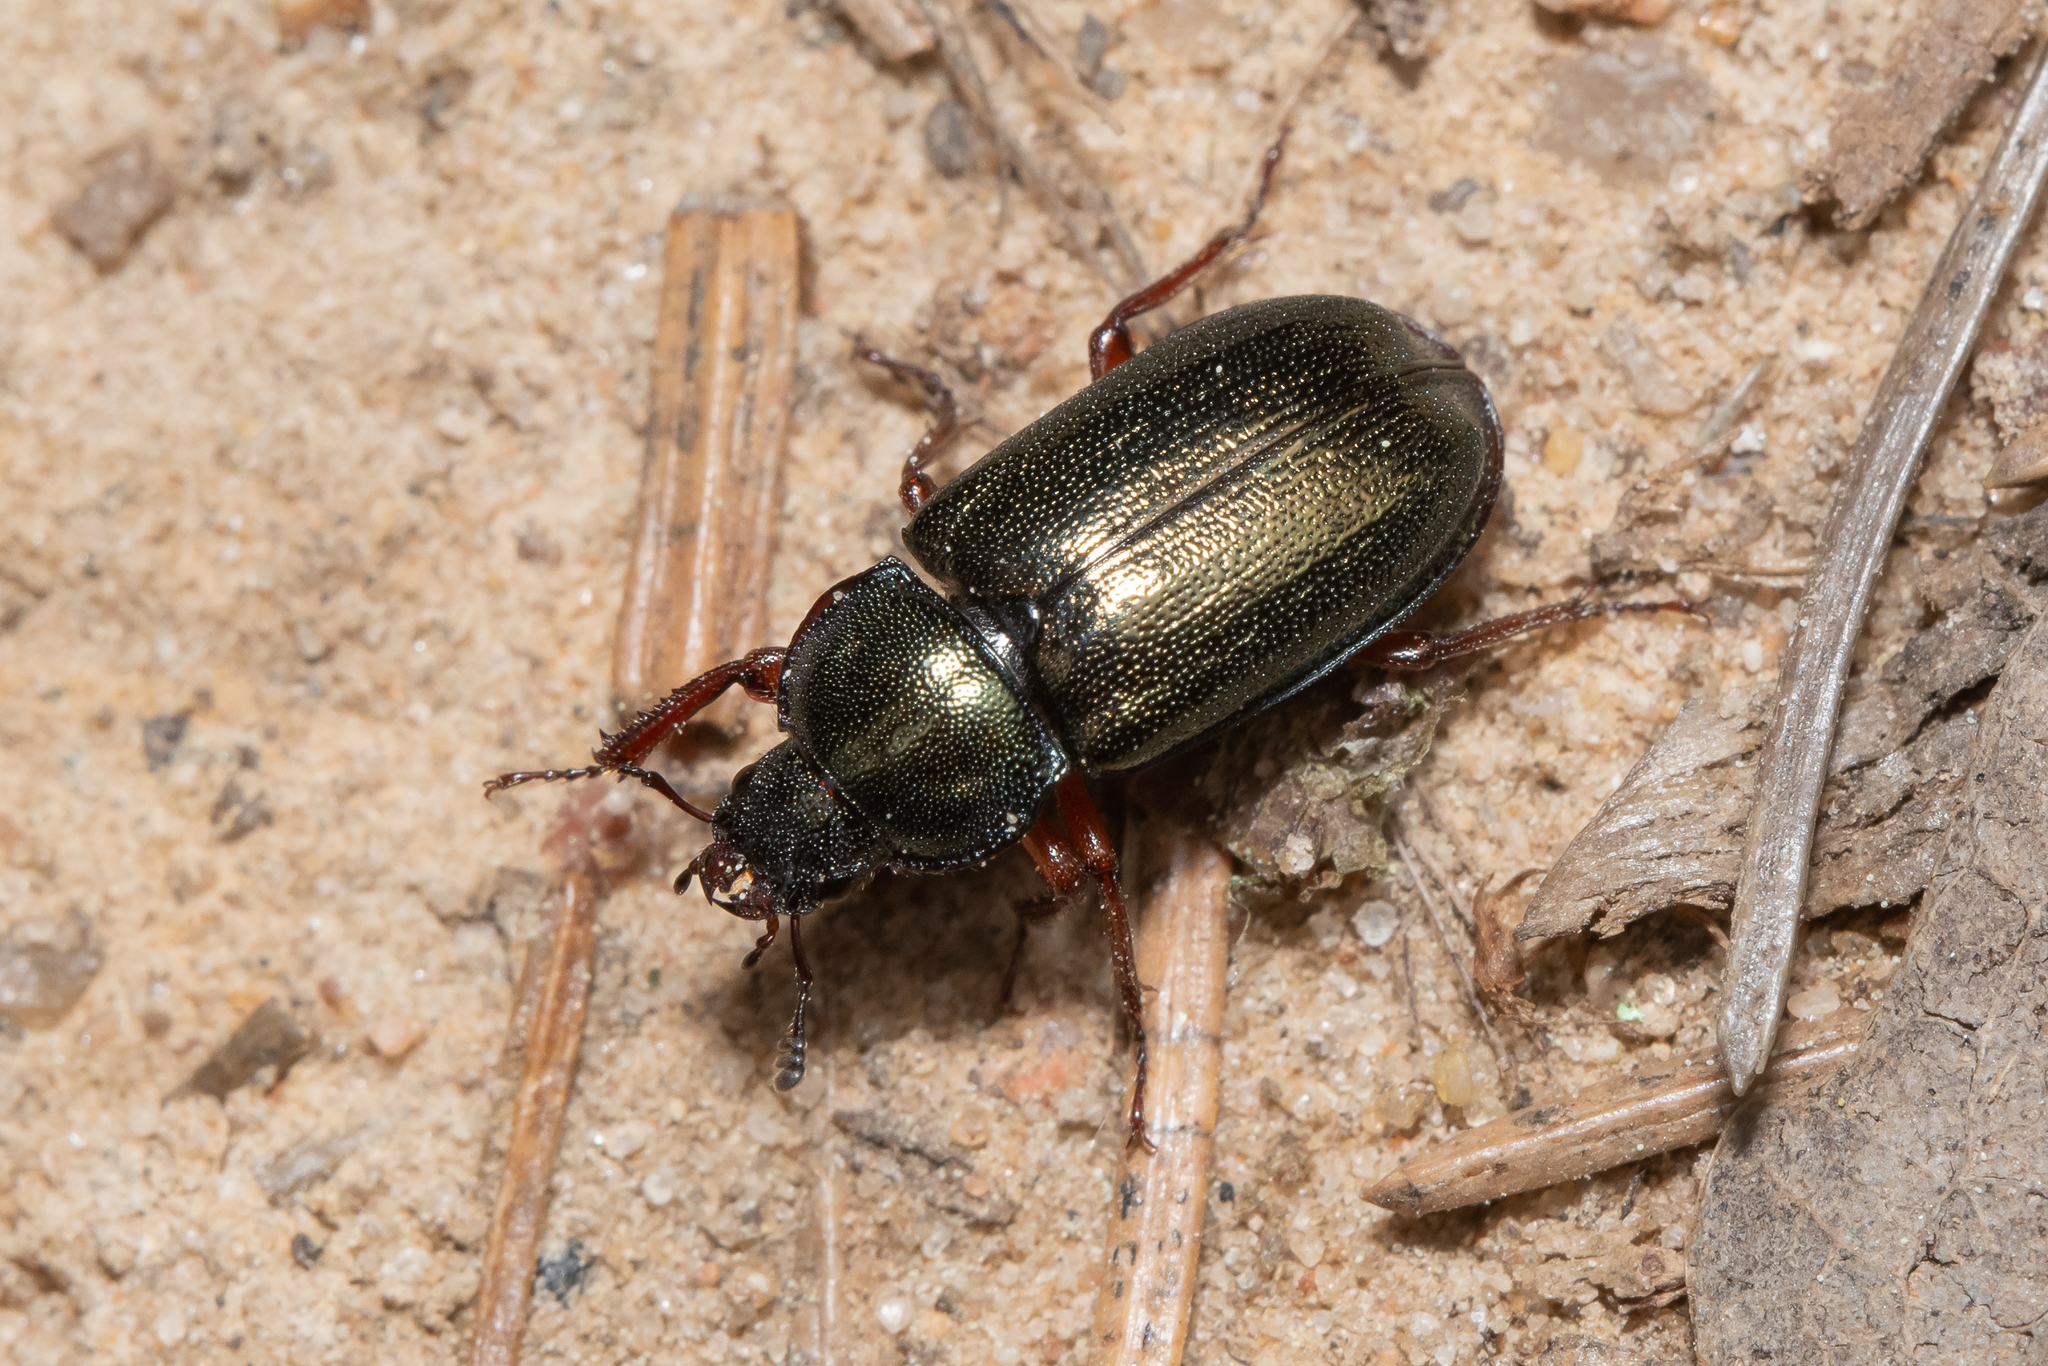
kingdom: Animalia
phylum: Arthropoda
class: Insecta
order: Coleoptera
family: Lucanidae
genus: Platycerus
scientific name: Platycerus caraboides
